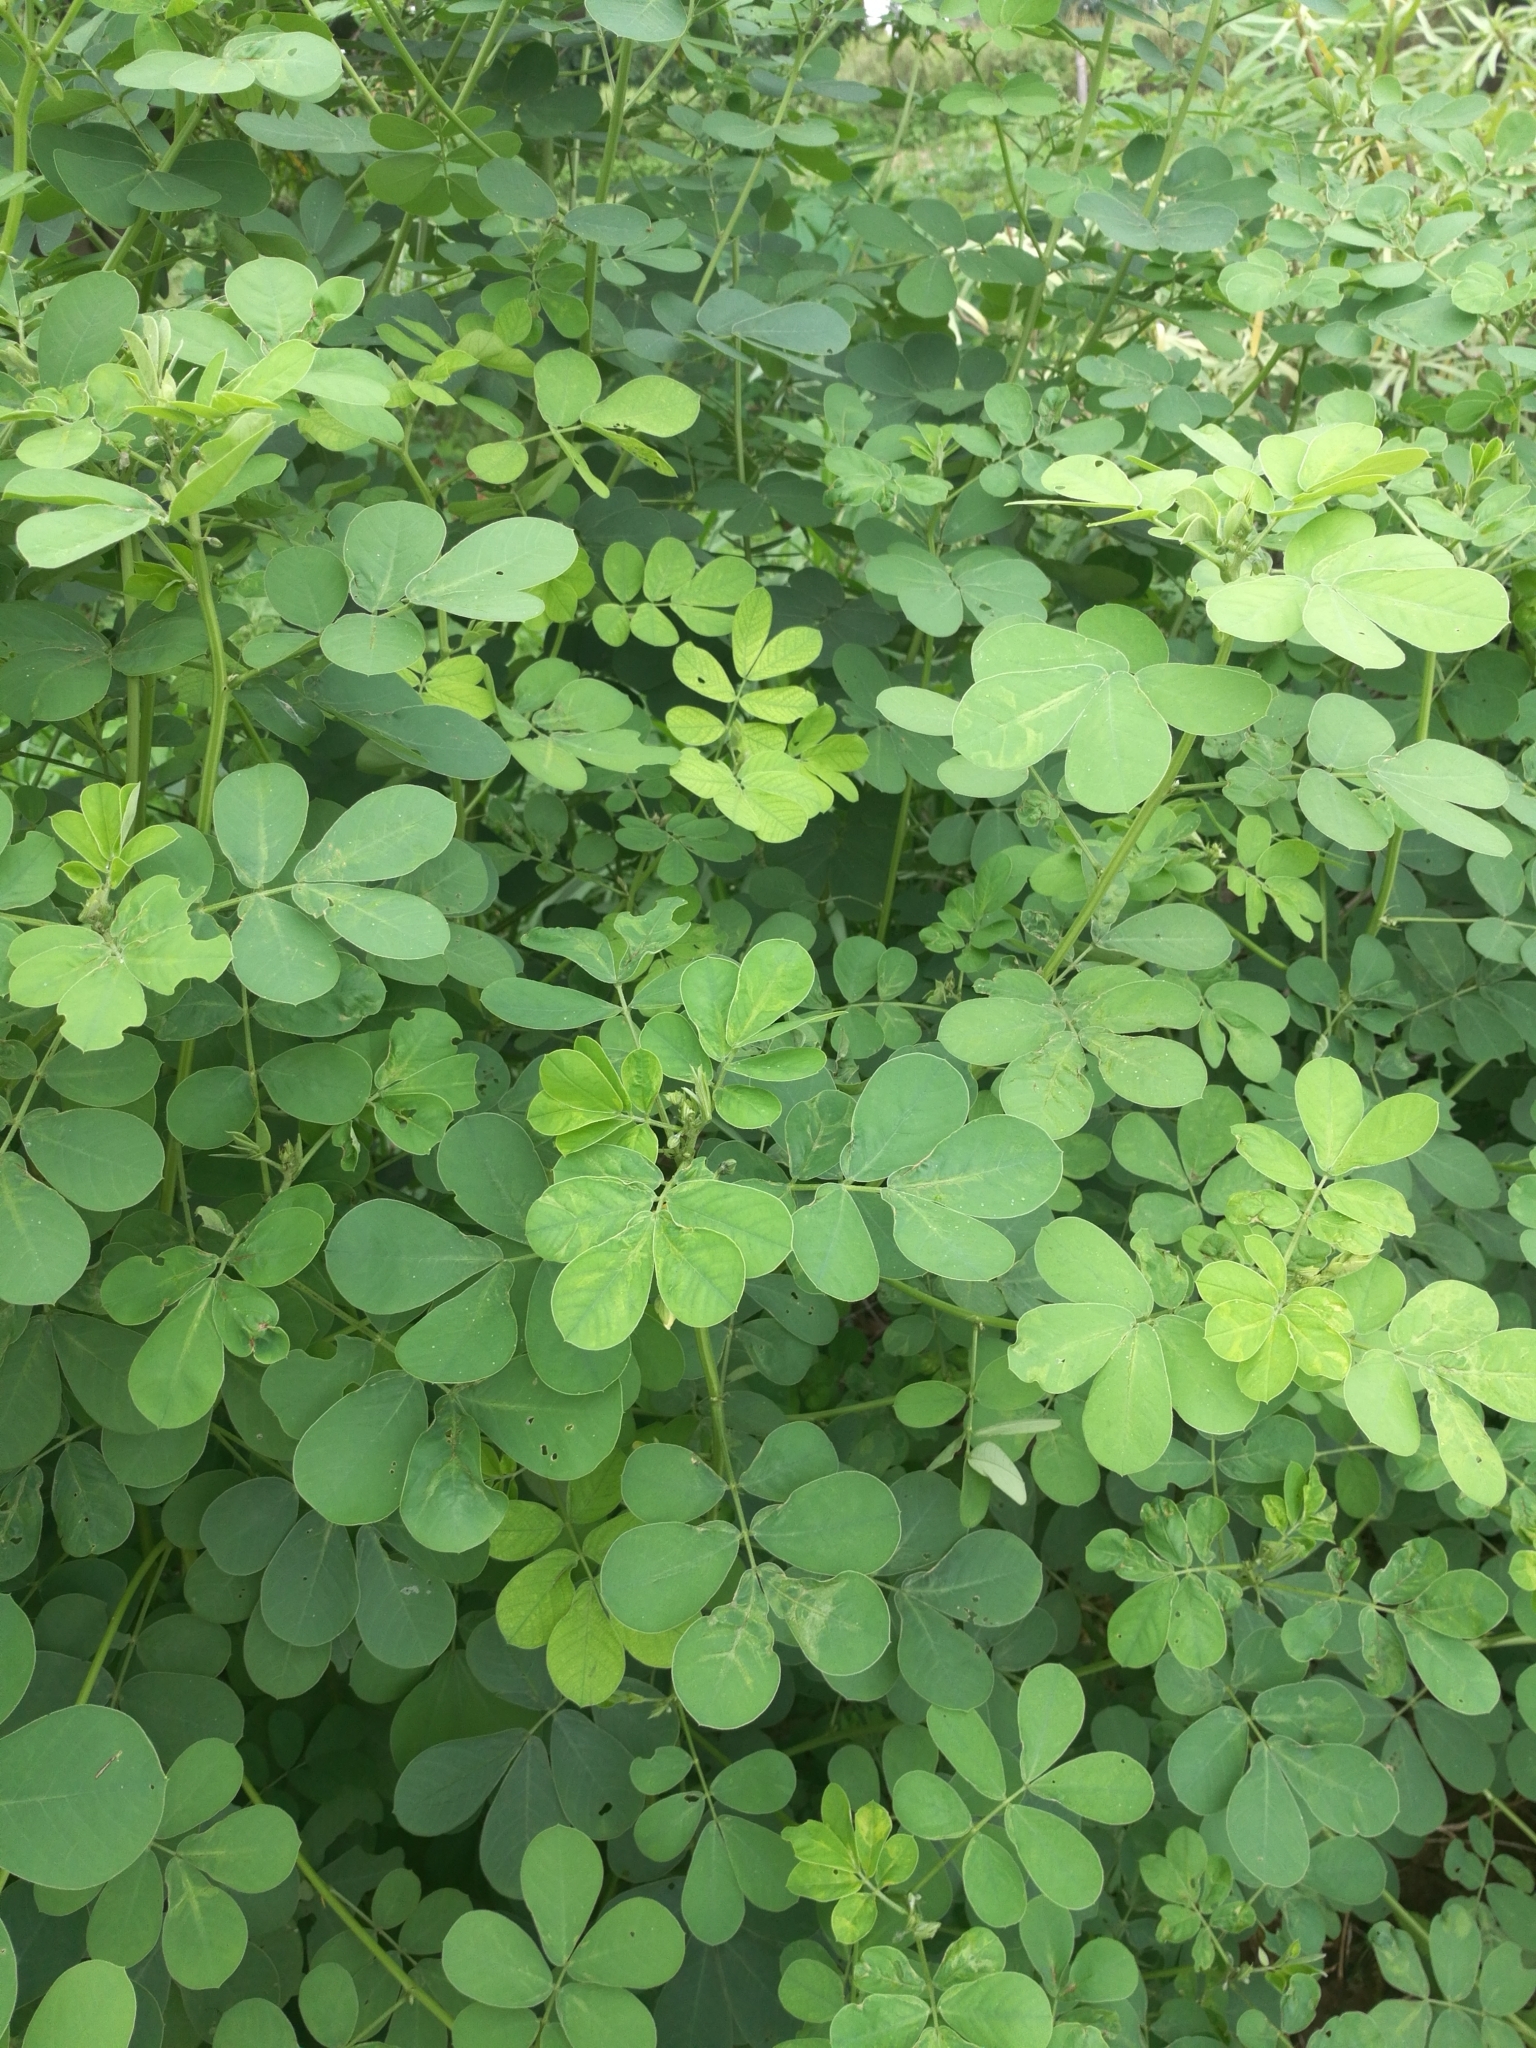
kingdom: Plantae
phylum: Tracheophyta
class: Magnoliopsida
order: Fabales
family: Fabaceae
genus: Senna
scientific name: Senna obtusifolia
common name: Java-bean
